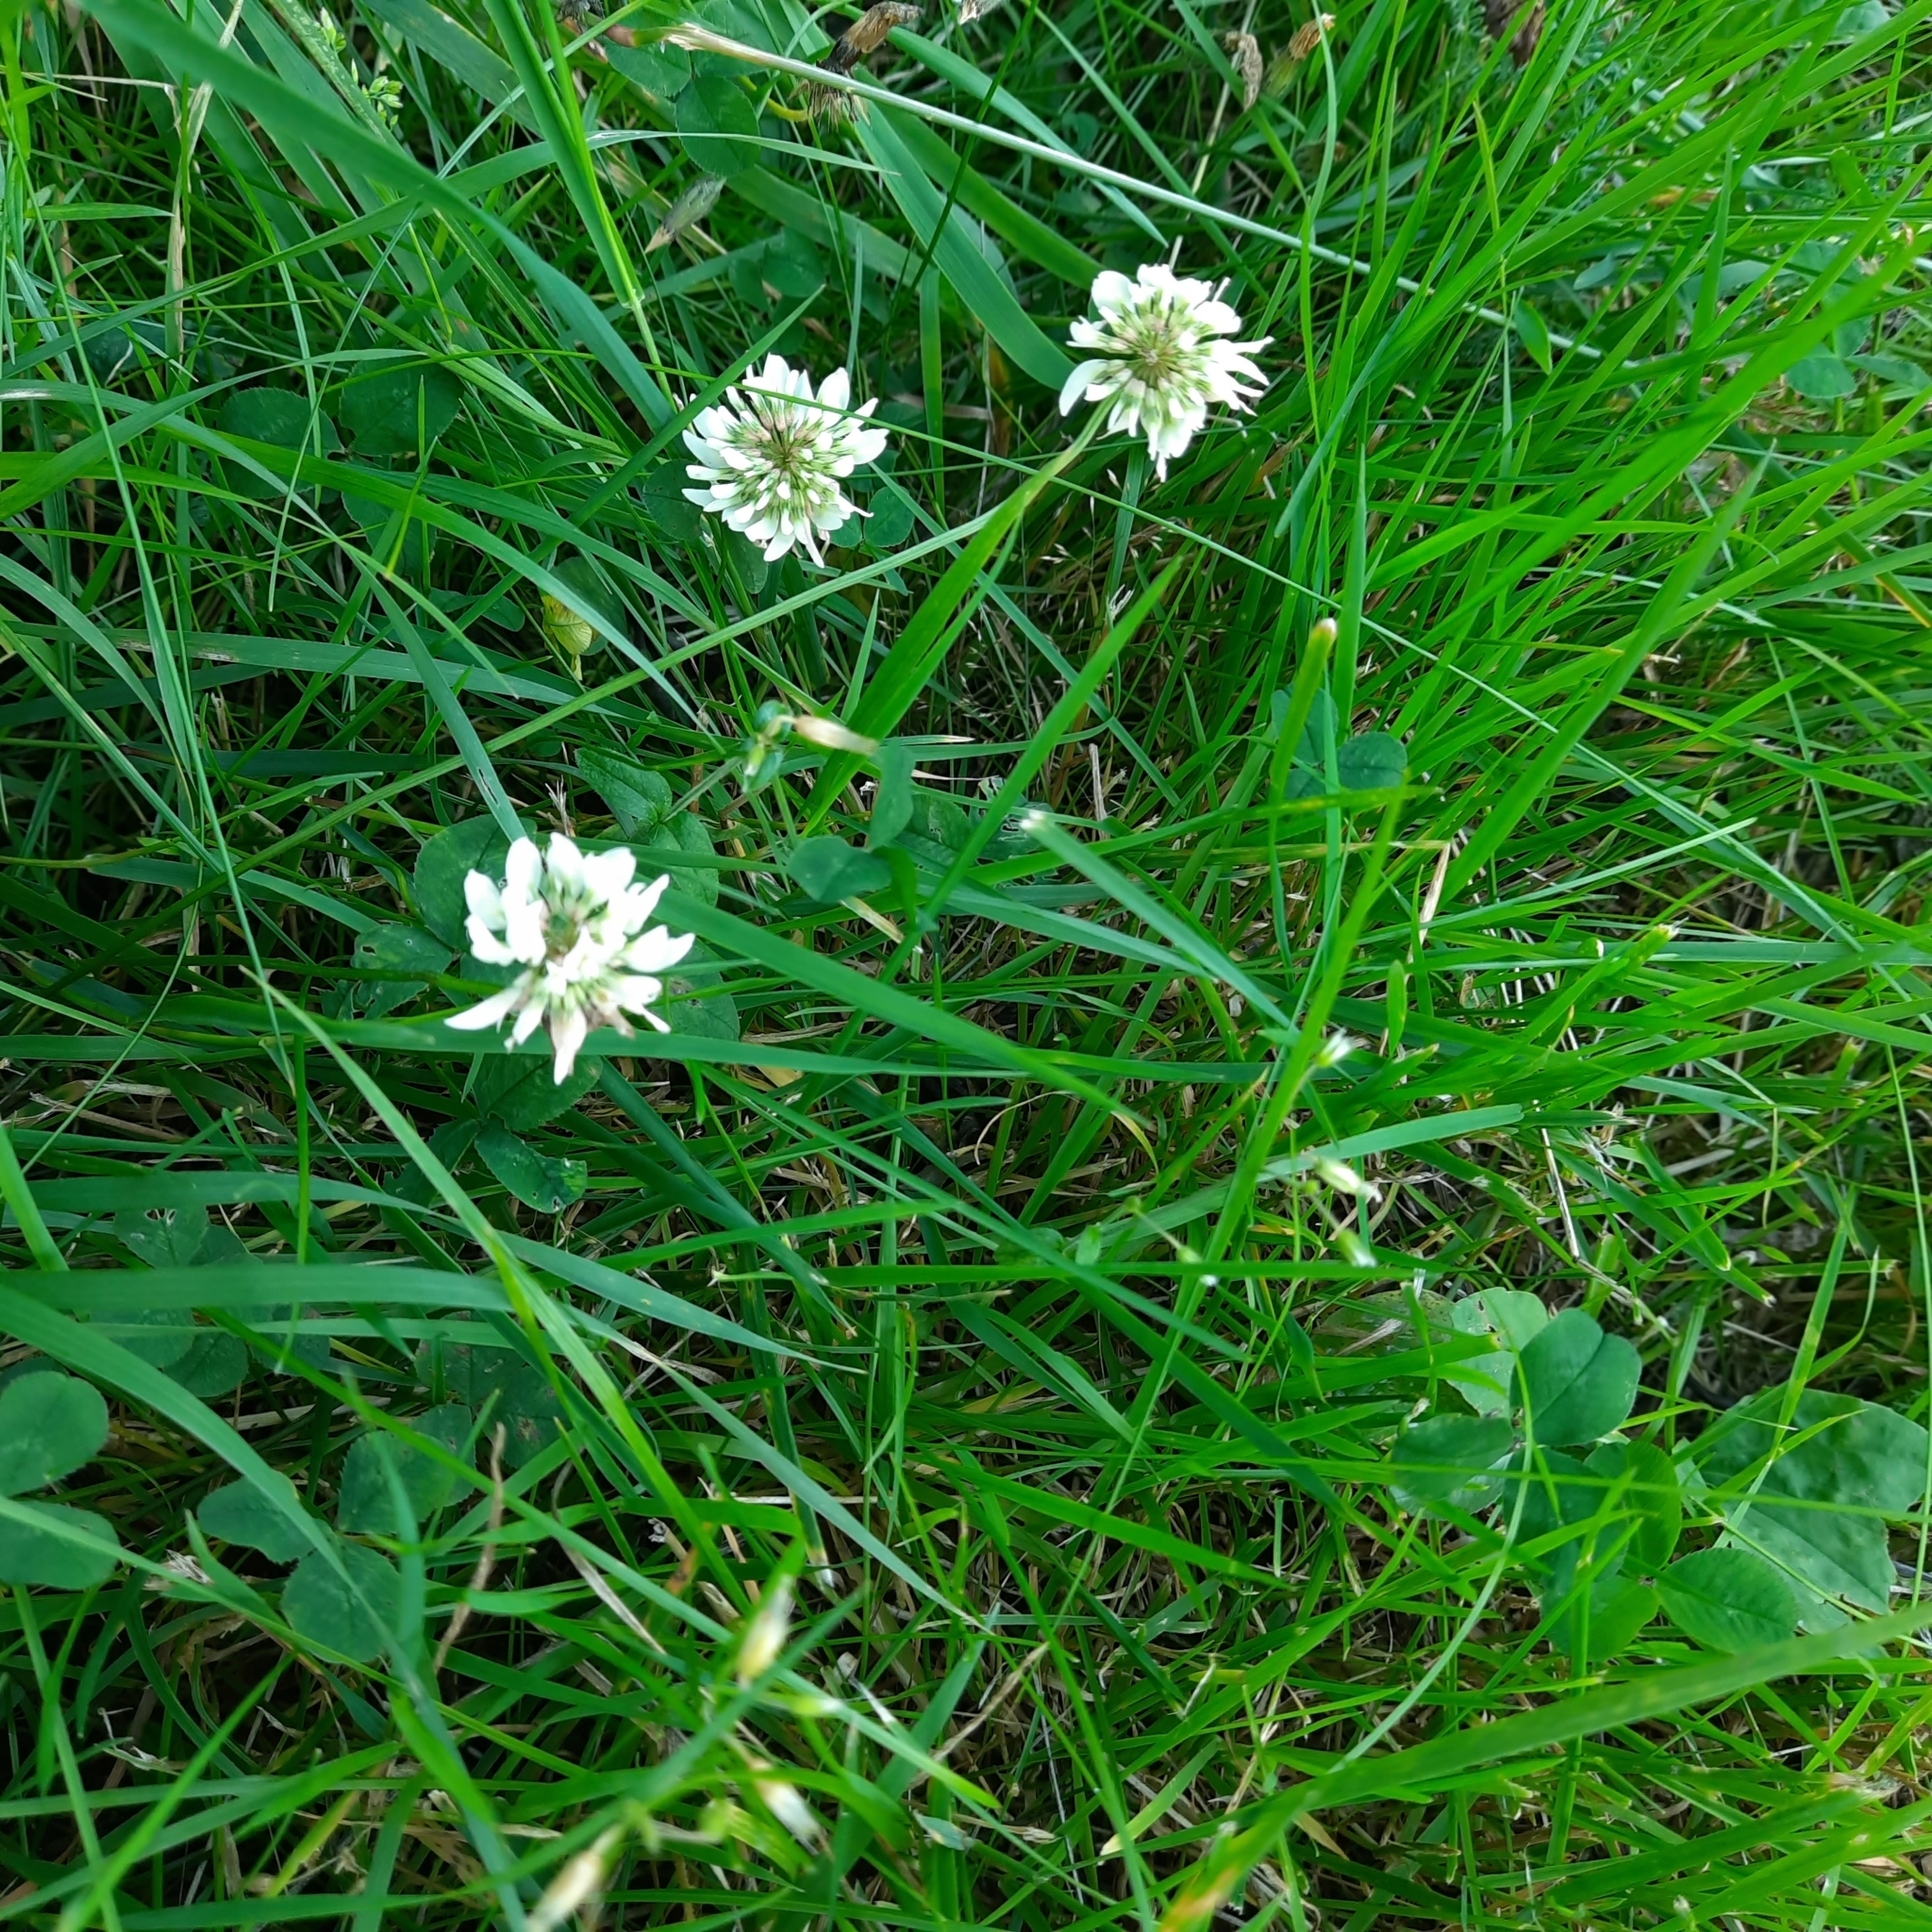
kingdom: Plantae
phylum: Tracheophyta
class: Magnoliopsida
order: Fabales
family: Fabaceae
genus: Trifolium
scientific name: Trifolium repens
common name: White clover
